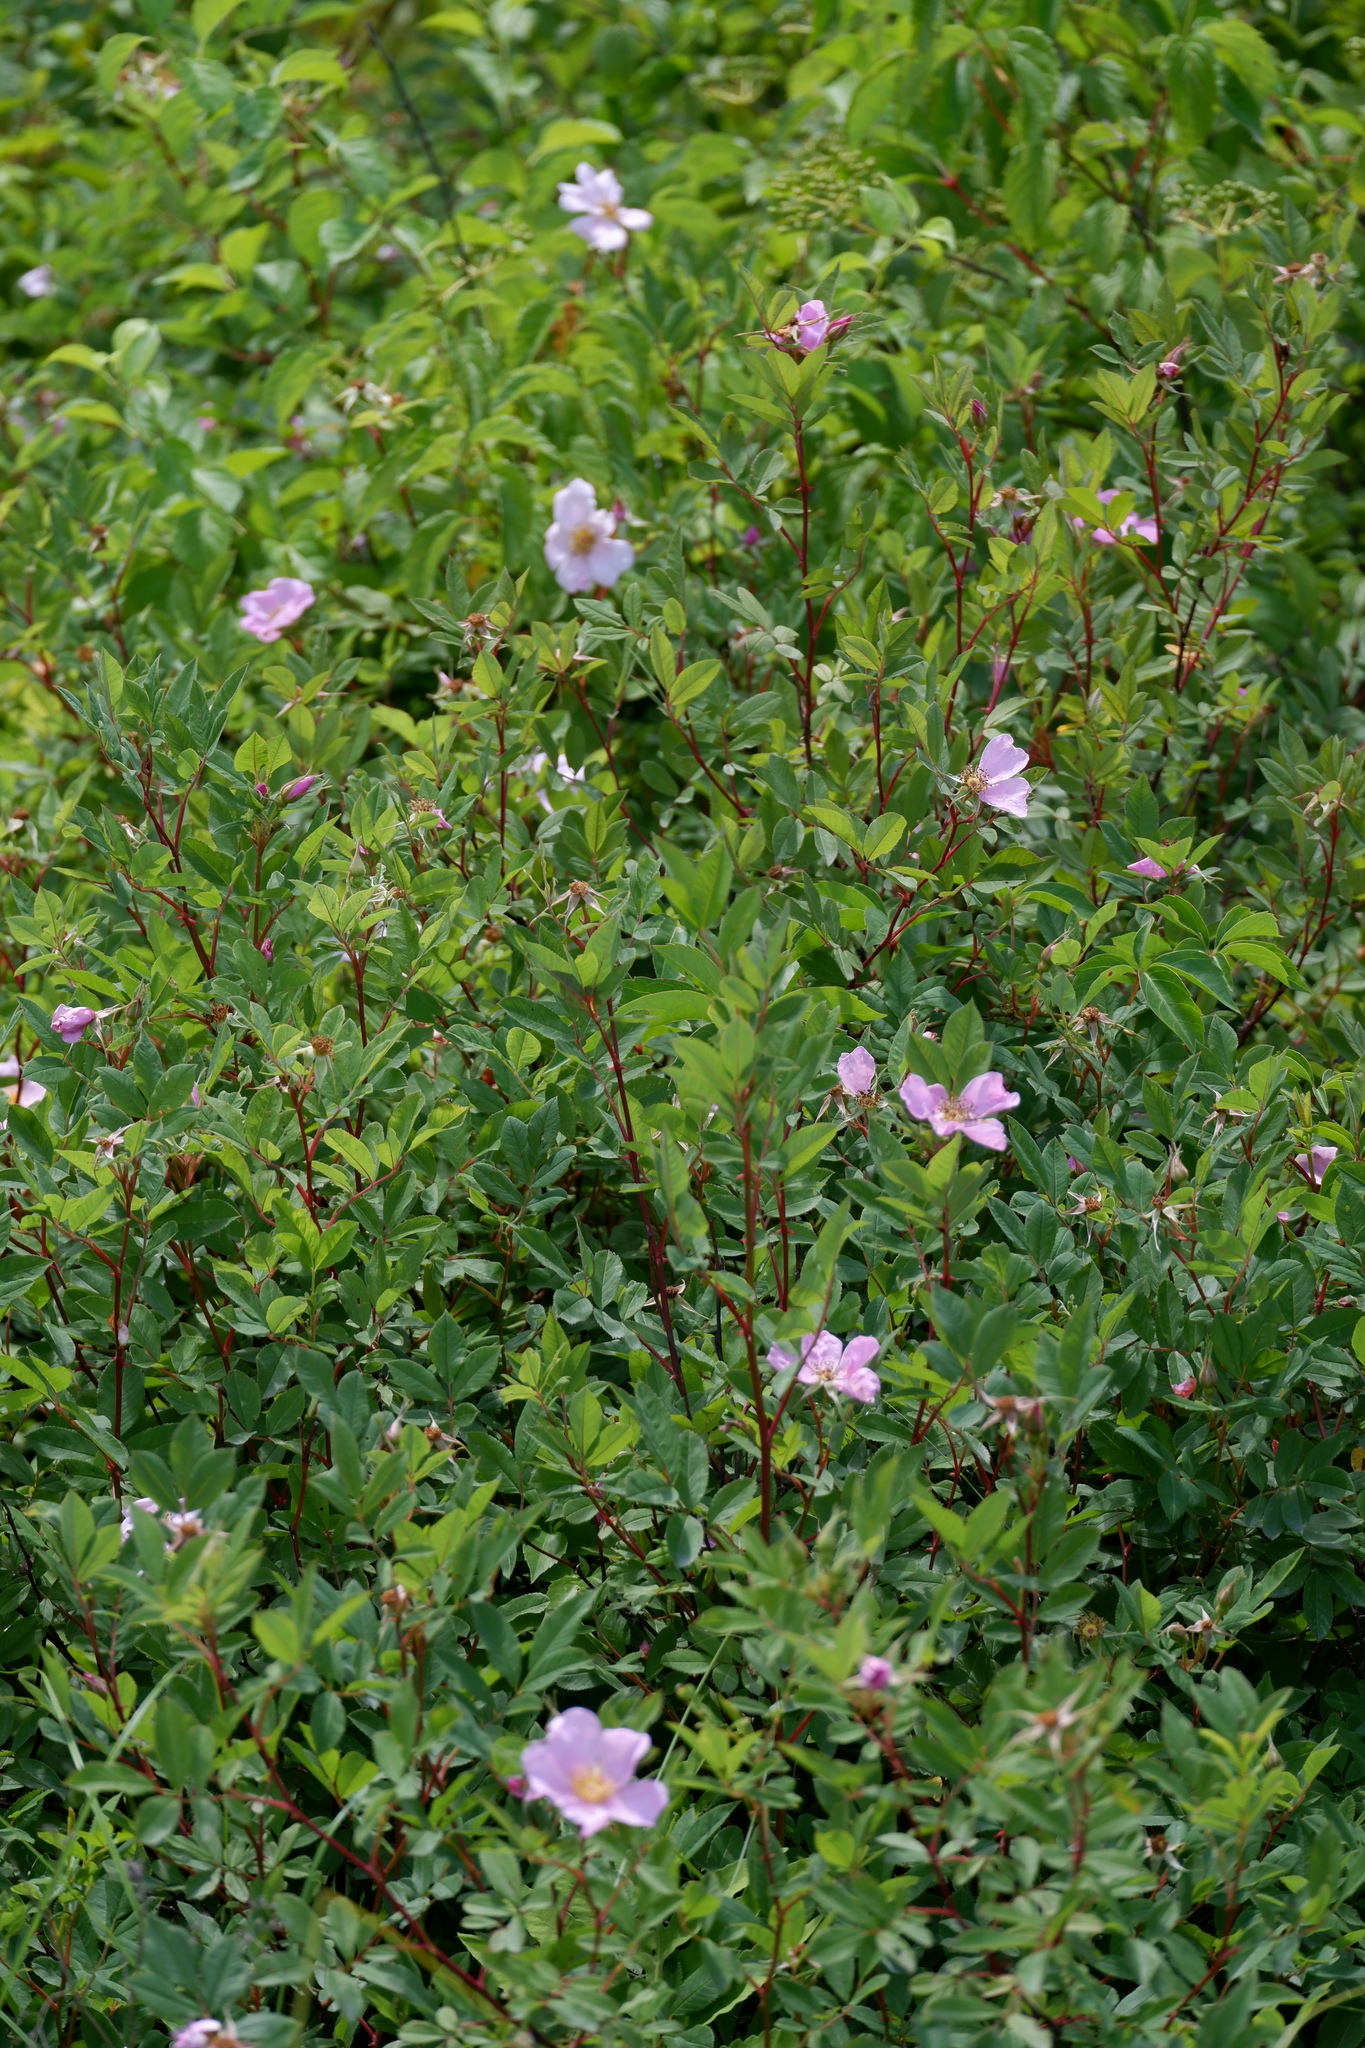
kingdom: Plantae
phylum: Tracheophyta
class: Magnoliopsida
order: Rosales
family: Rosaceae
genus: Rosa
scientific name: Rosa palustris
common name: Swamp rose
